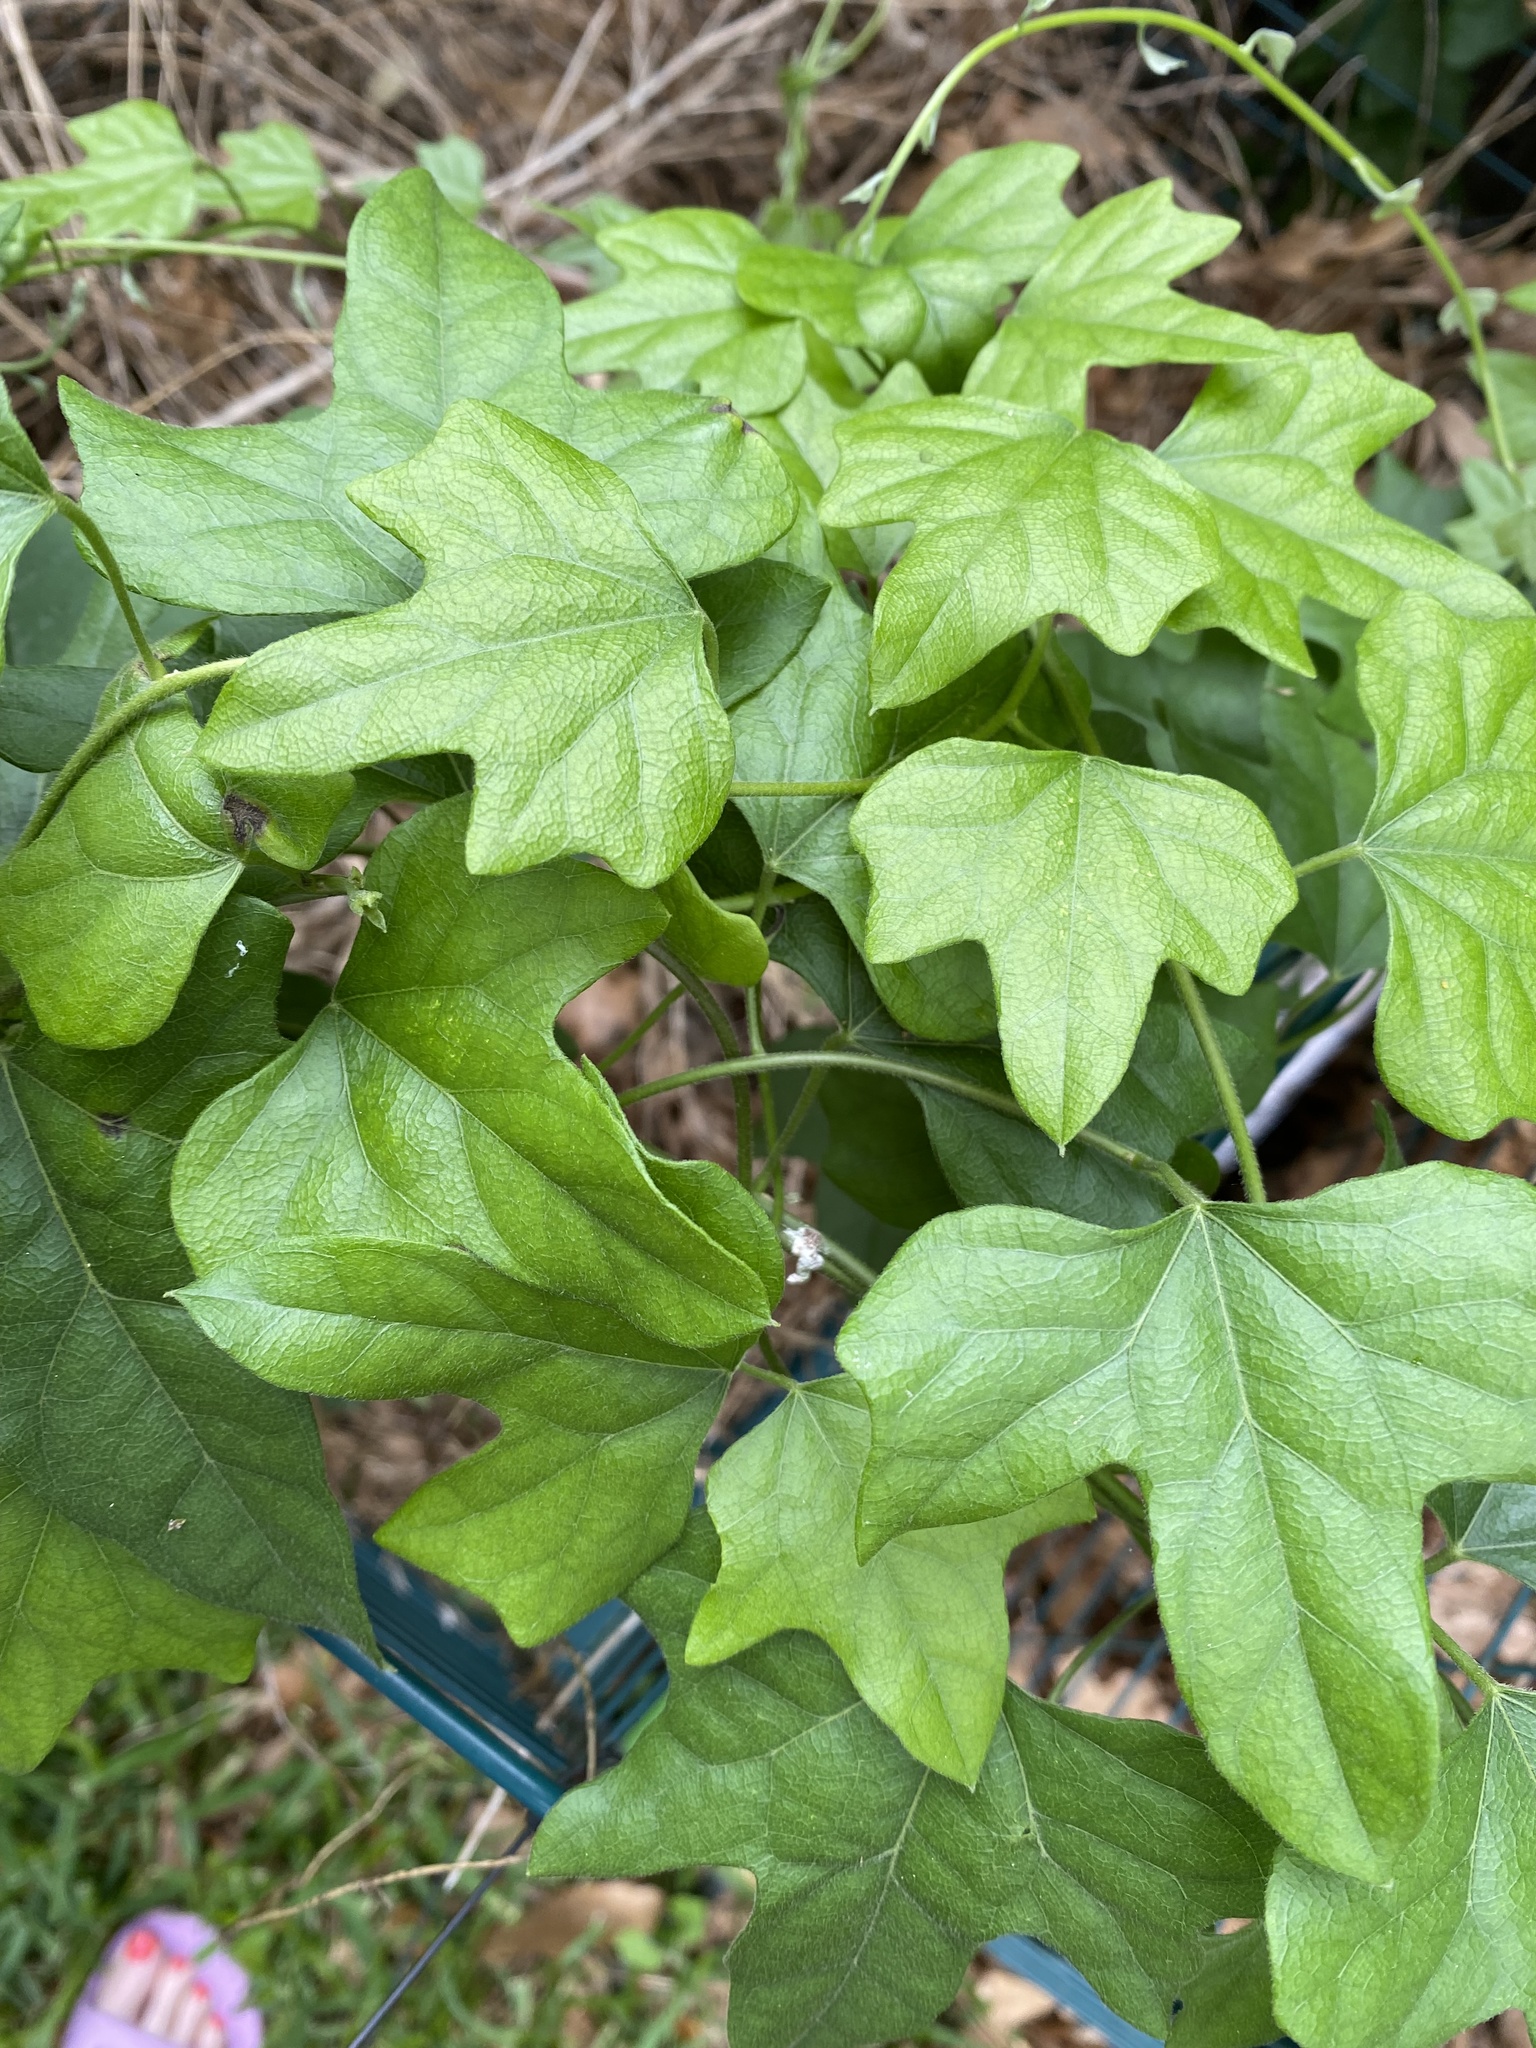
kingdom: Plantae
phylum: Tracheophyta
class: Magnoliopsida
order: Ranunculales
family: Menispermaceae
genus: Cocculus
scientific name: Cocculus carolinus
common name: Carolina moonseed
